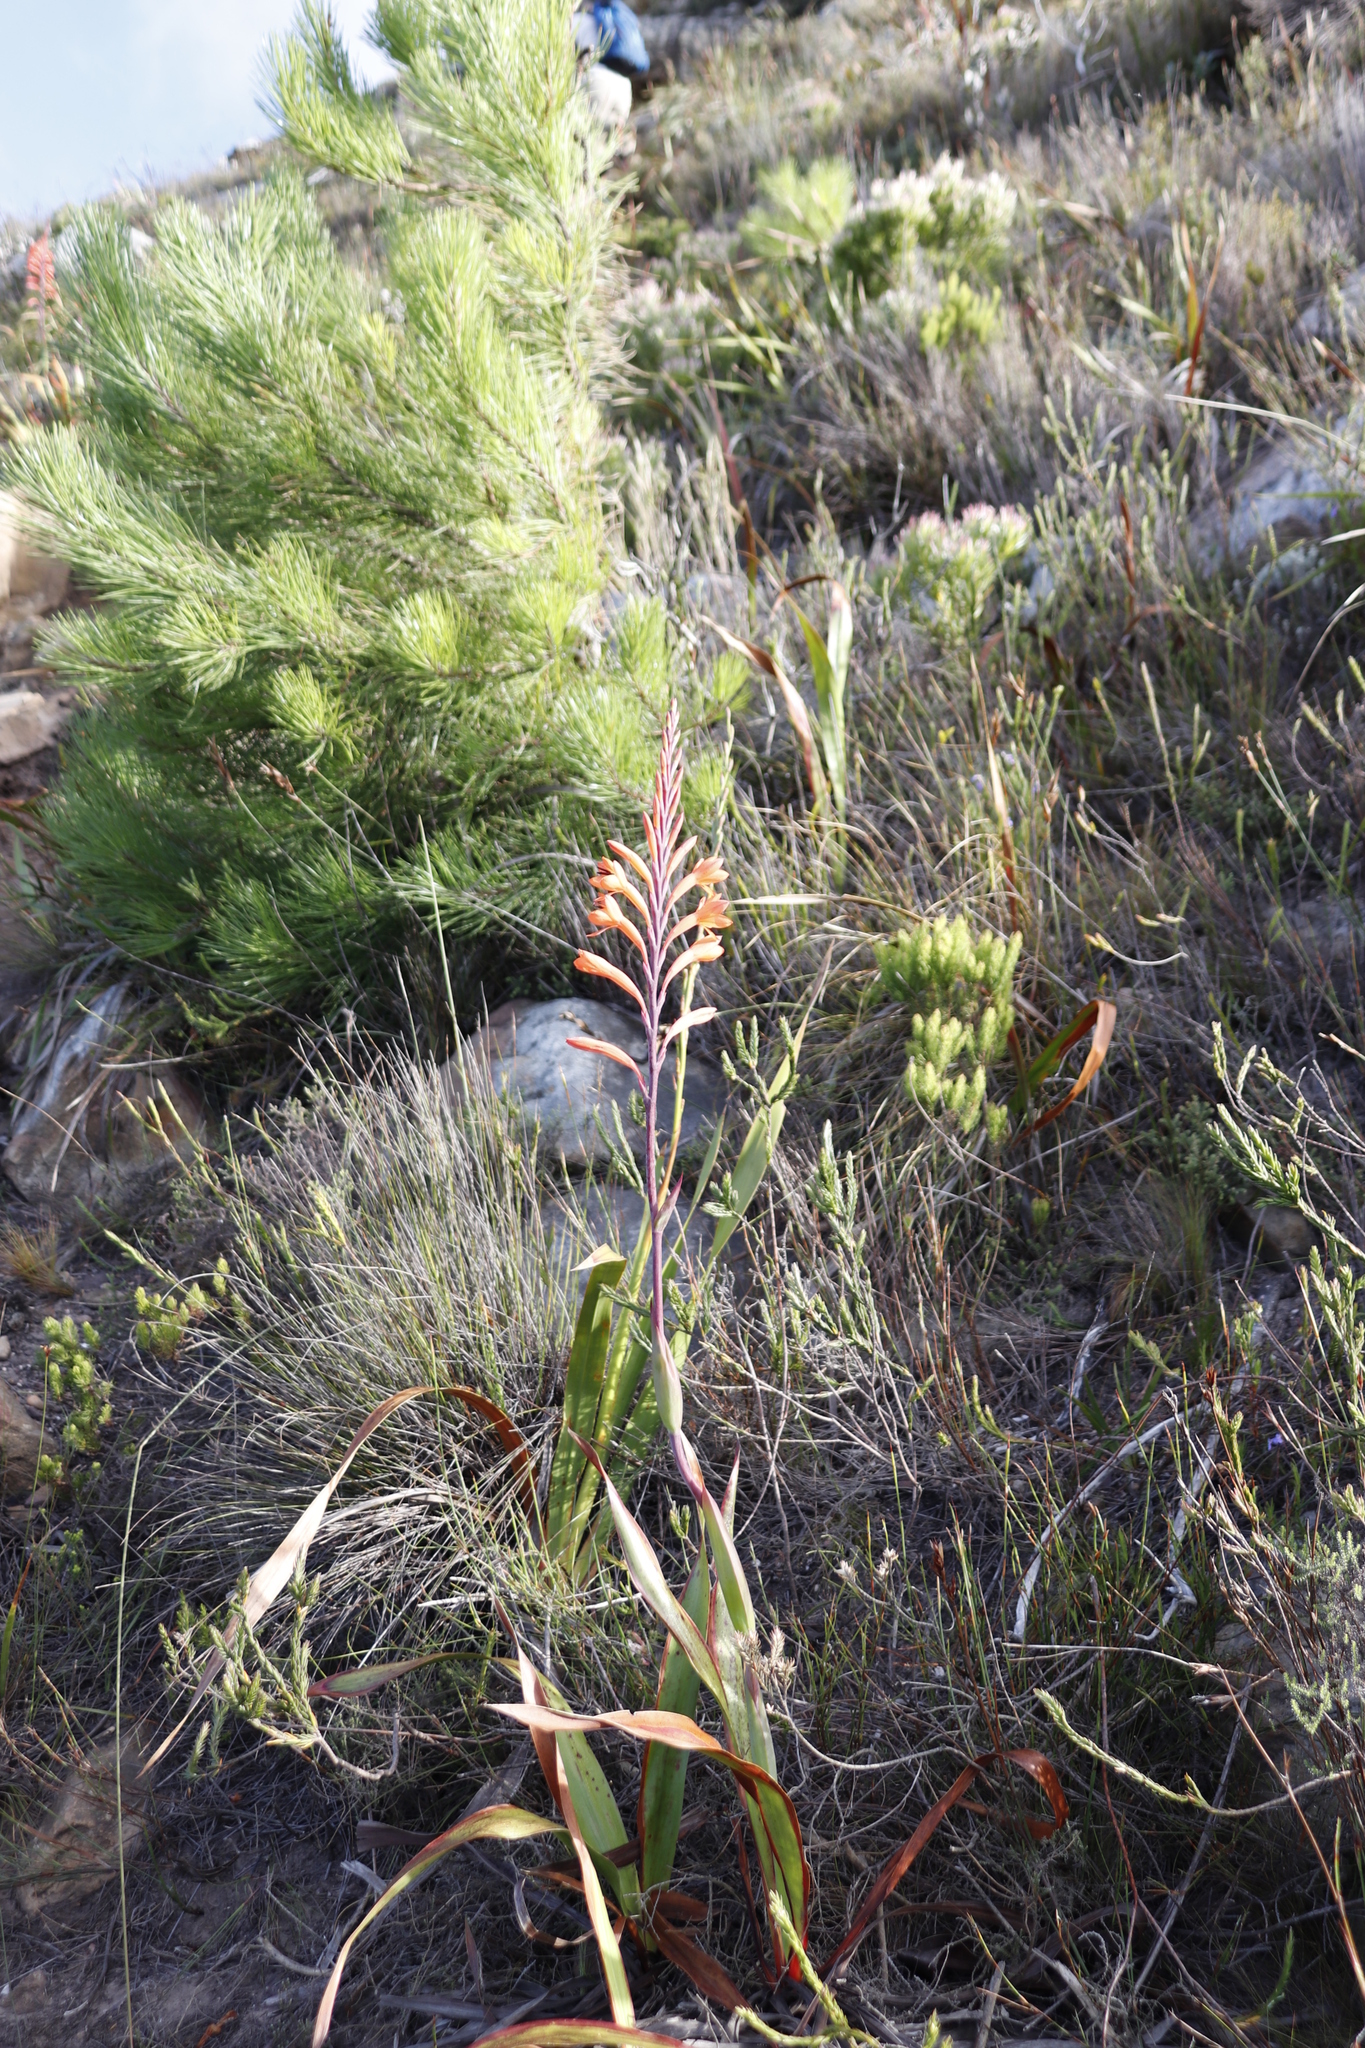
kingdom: Plantae
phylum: Tracheophyta
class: Liliopsida
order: Asparagales
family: Iridaceae
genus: Watsonia
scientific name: Watsonia tabularis
